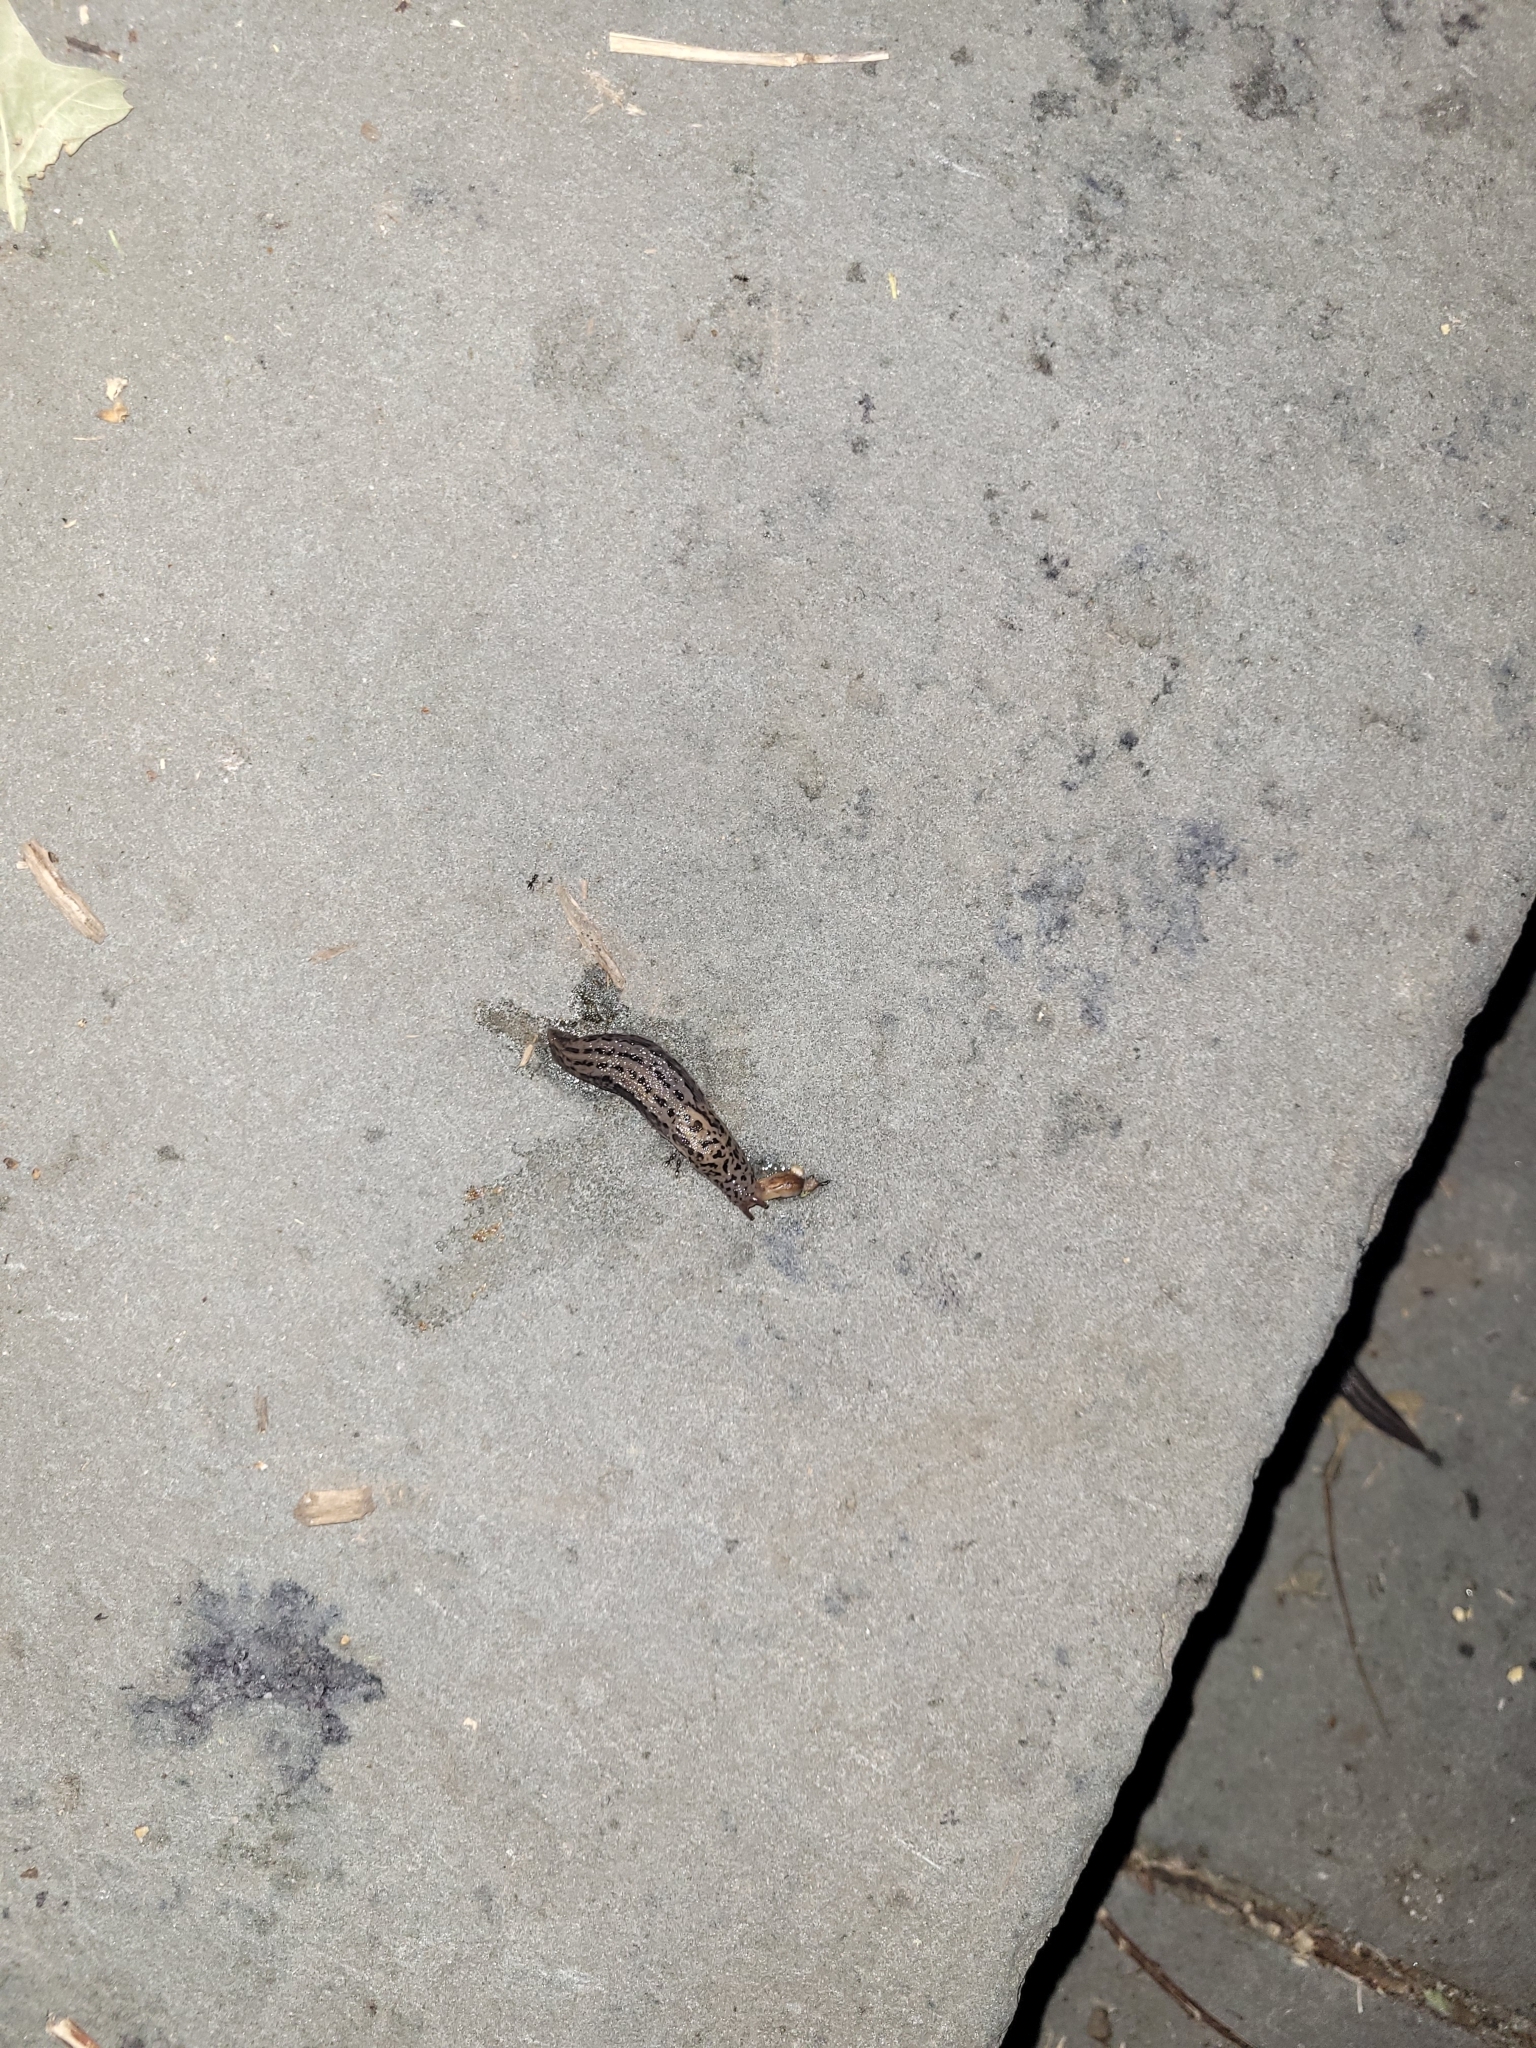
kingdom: Animalia
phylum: Mollusca
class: Gastropoda
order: Stylommatophora
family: Limacidae
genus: Limax
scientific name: Limax maximus
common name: Great grey slug
